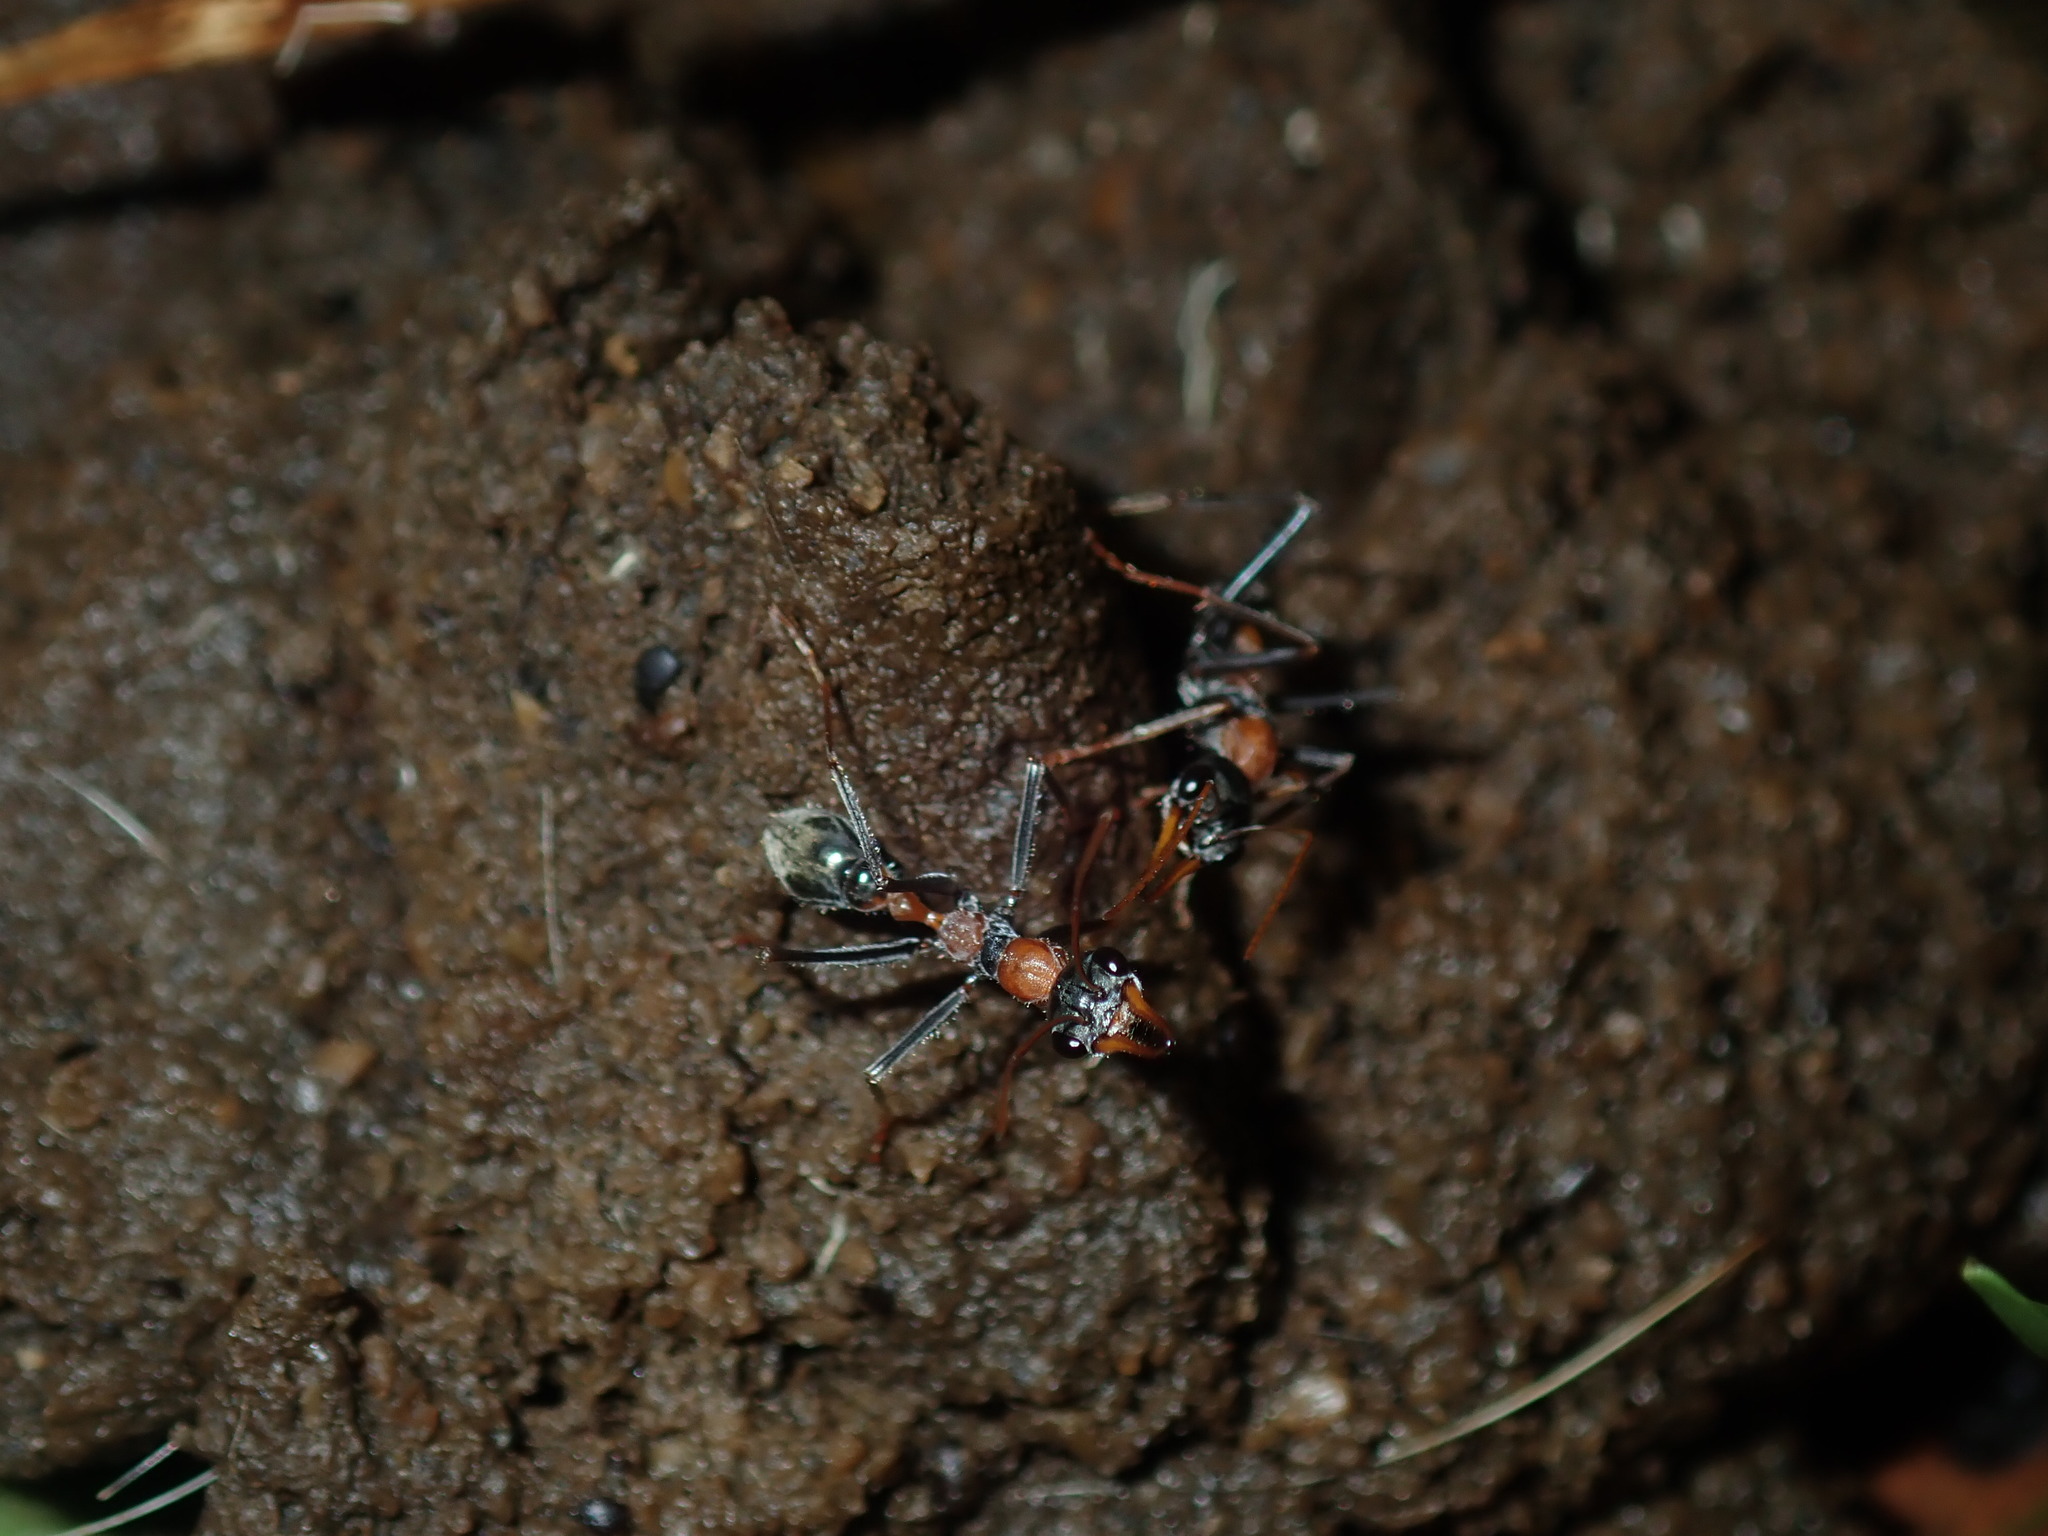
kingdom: Animalia
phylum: Arthropoda
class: Insecta
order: Hymenoptera
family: Formicidae
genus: Myrmecia
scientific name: Myrmecia nigrocincta
